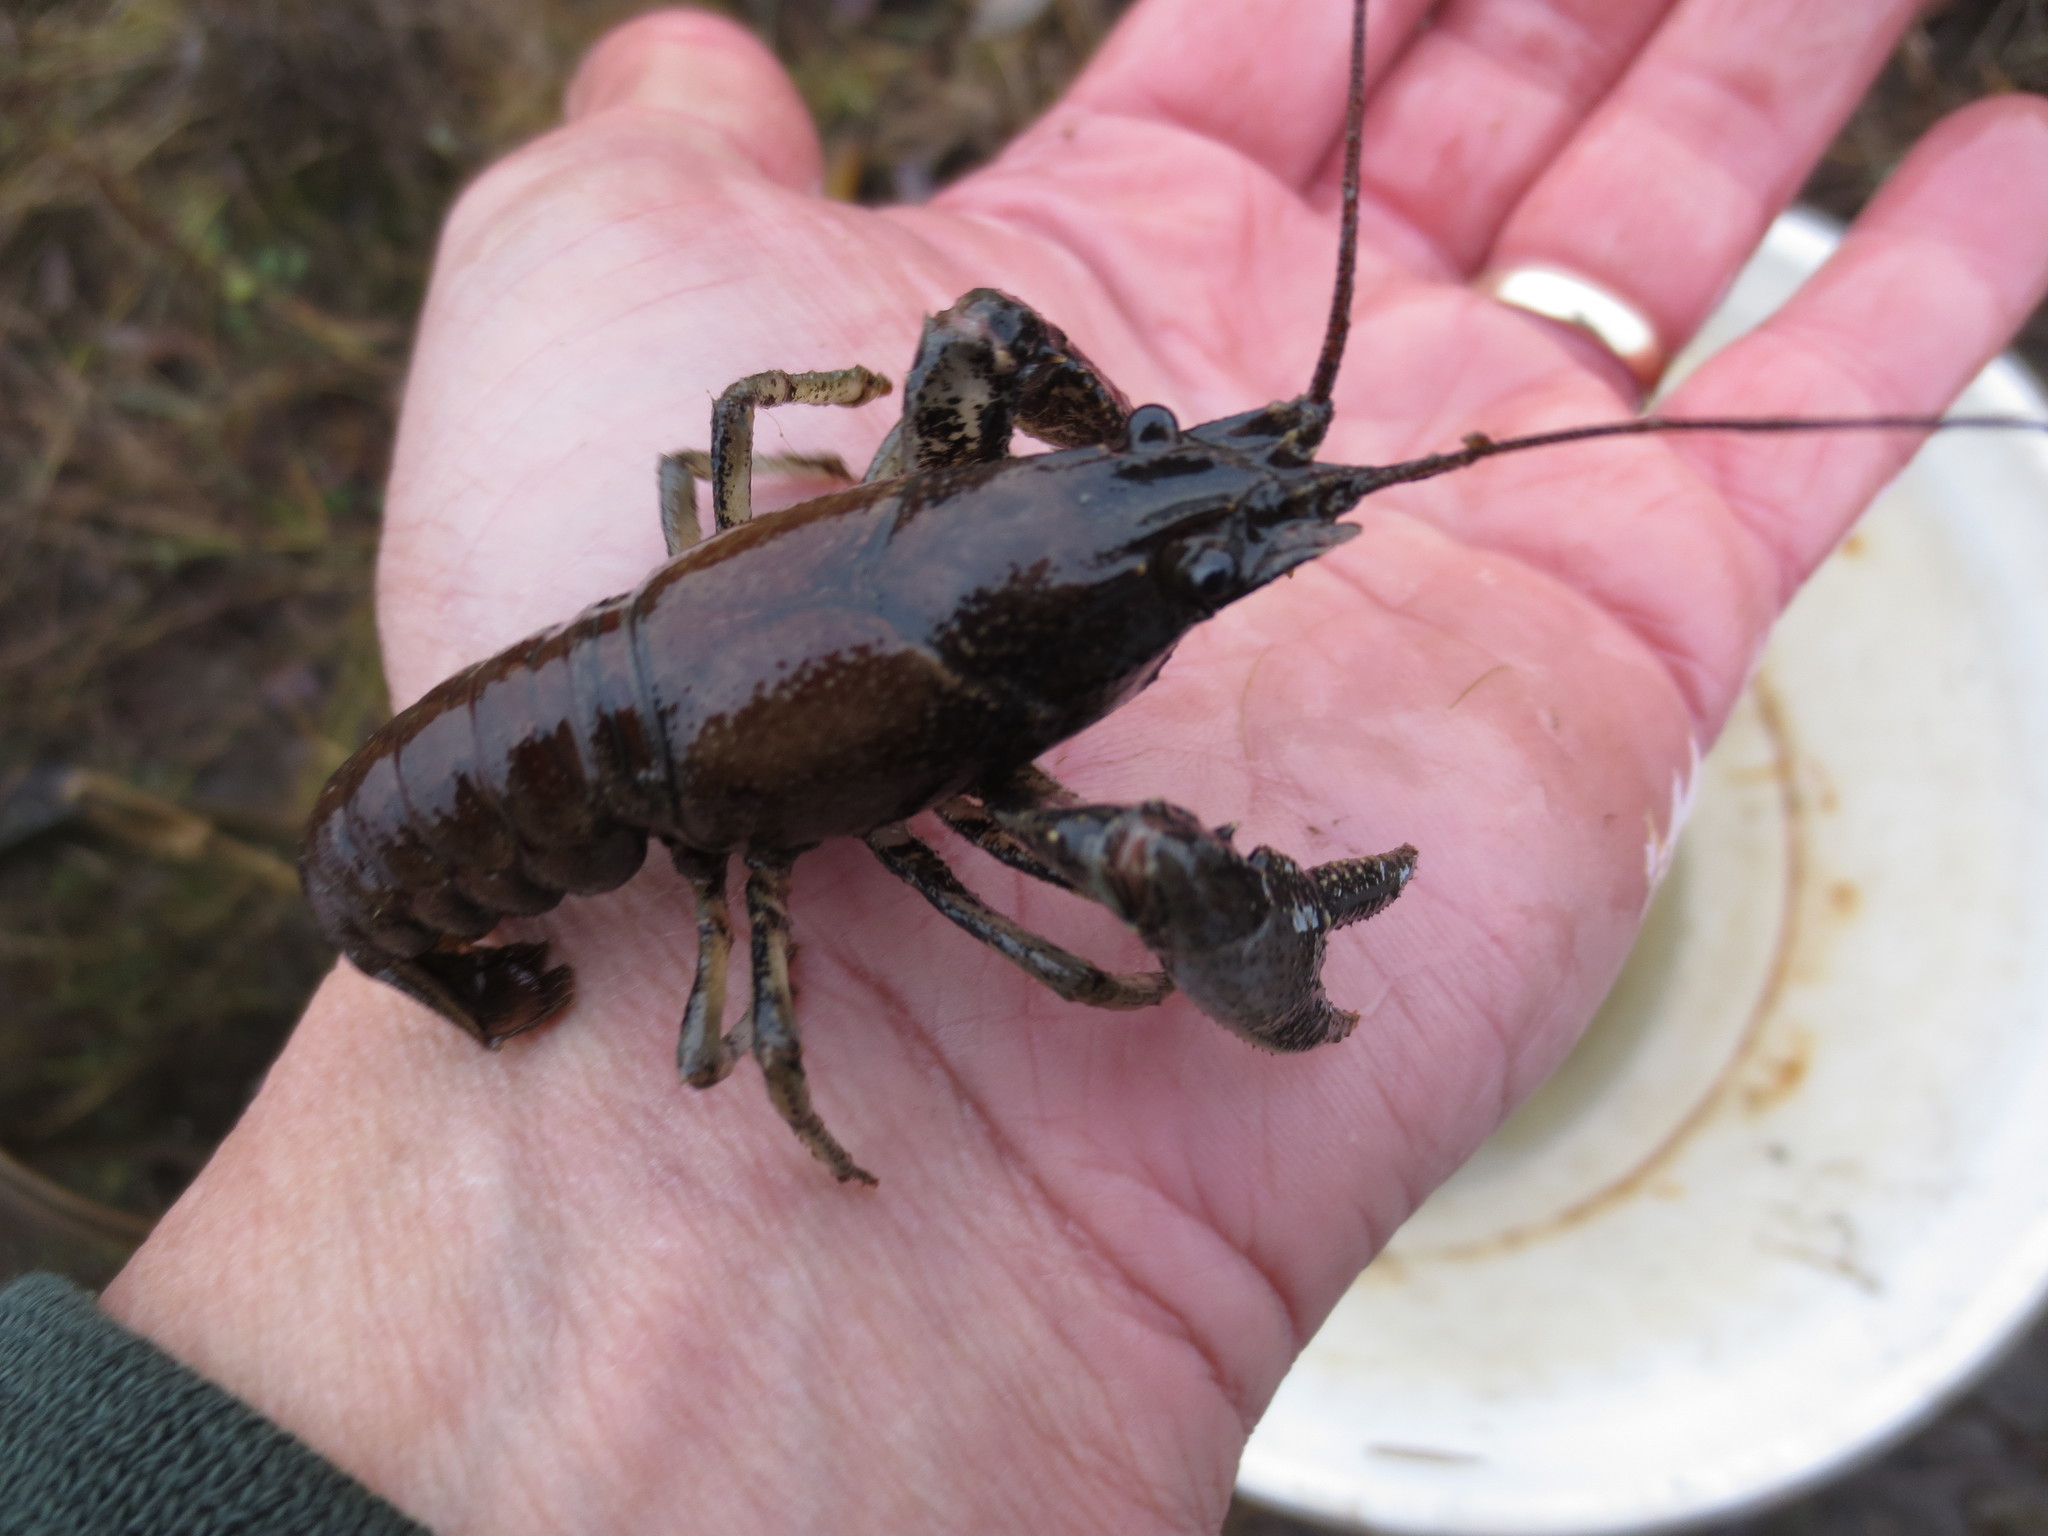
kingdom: Animalia
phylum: Arthropoda
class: Malacostraca
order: Decapoda
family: Cambaridae
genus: Faxonius
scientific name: Faxonius virilis
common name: Virile crayfish
